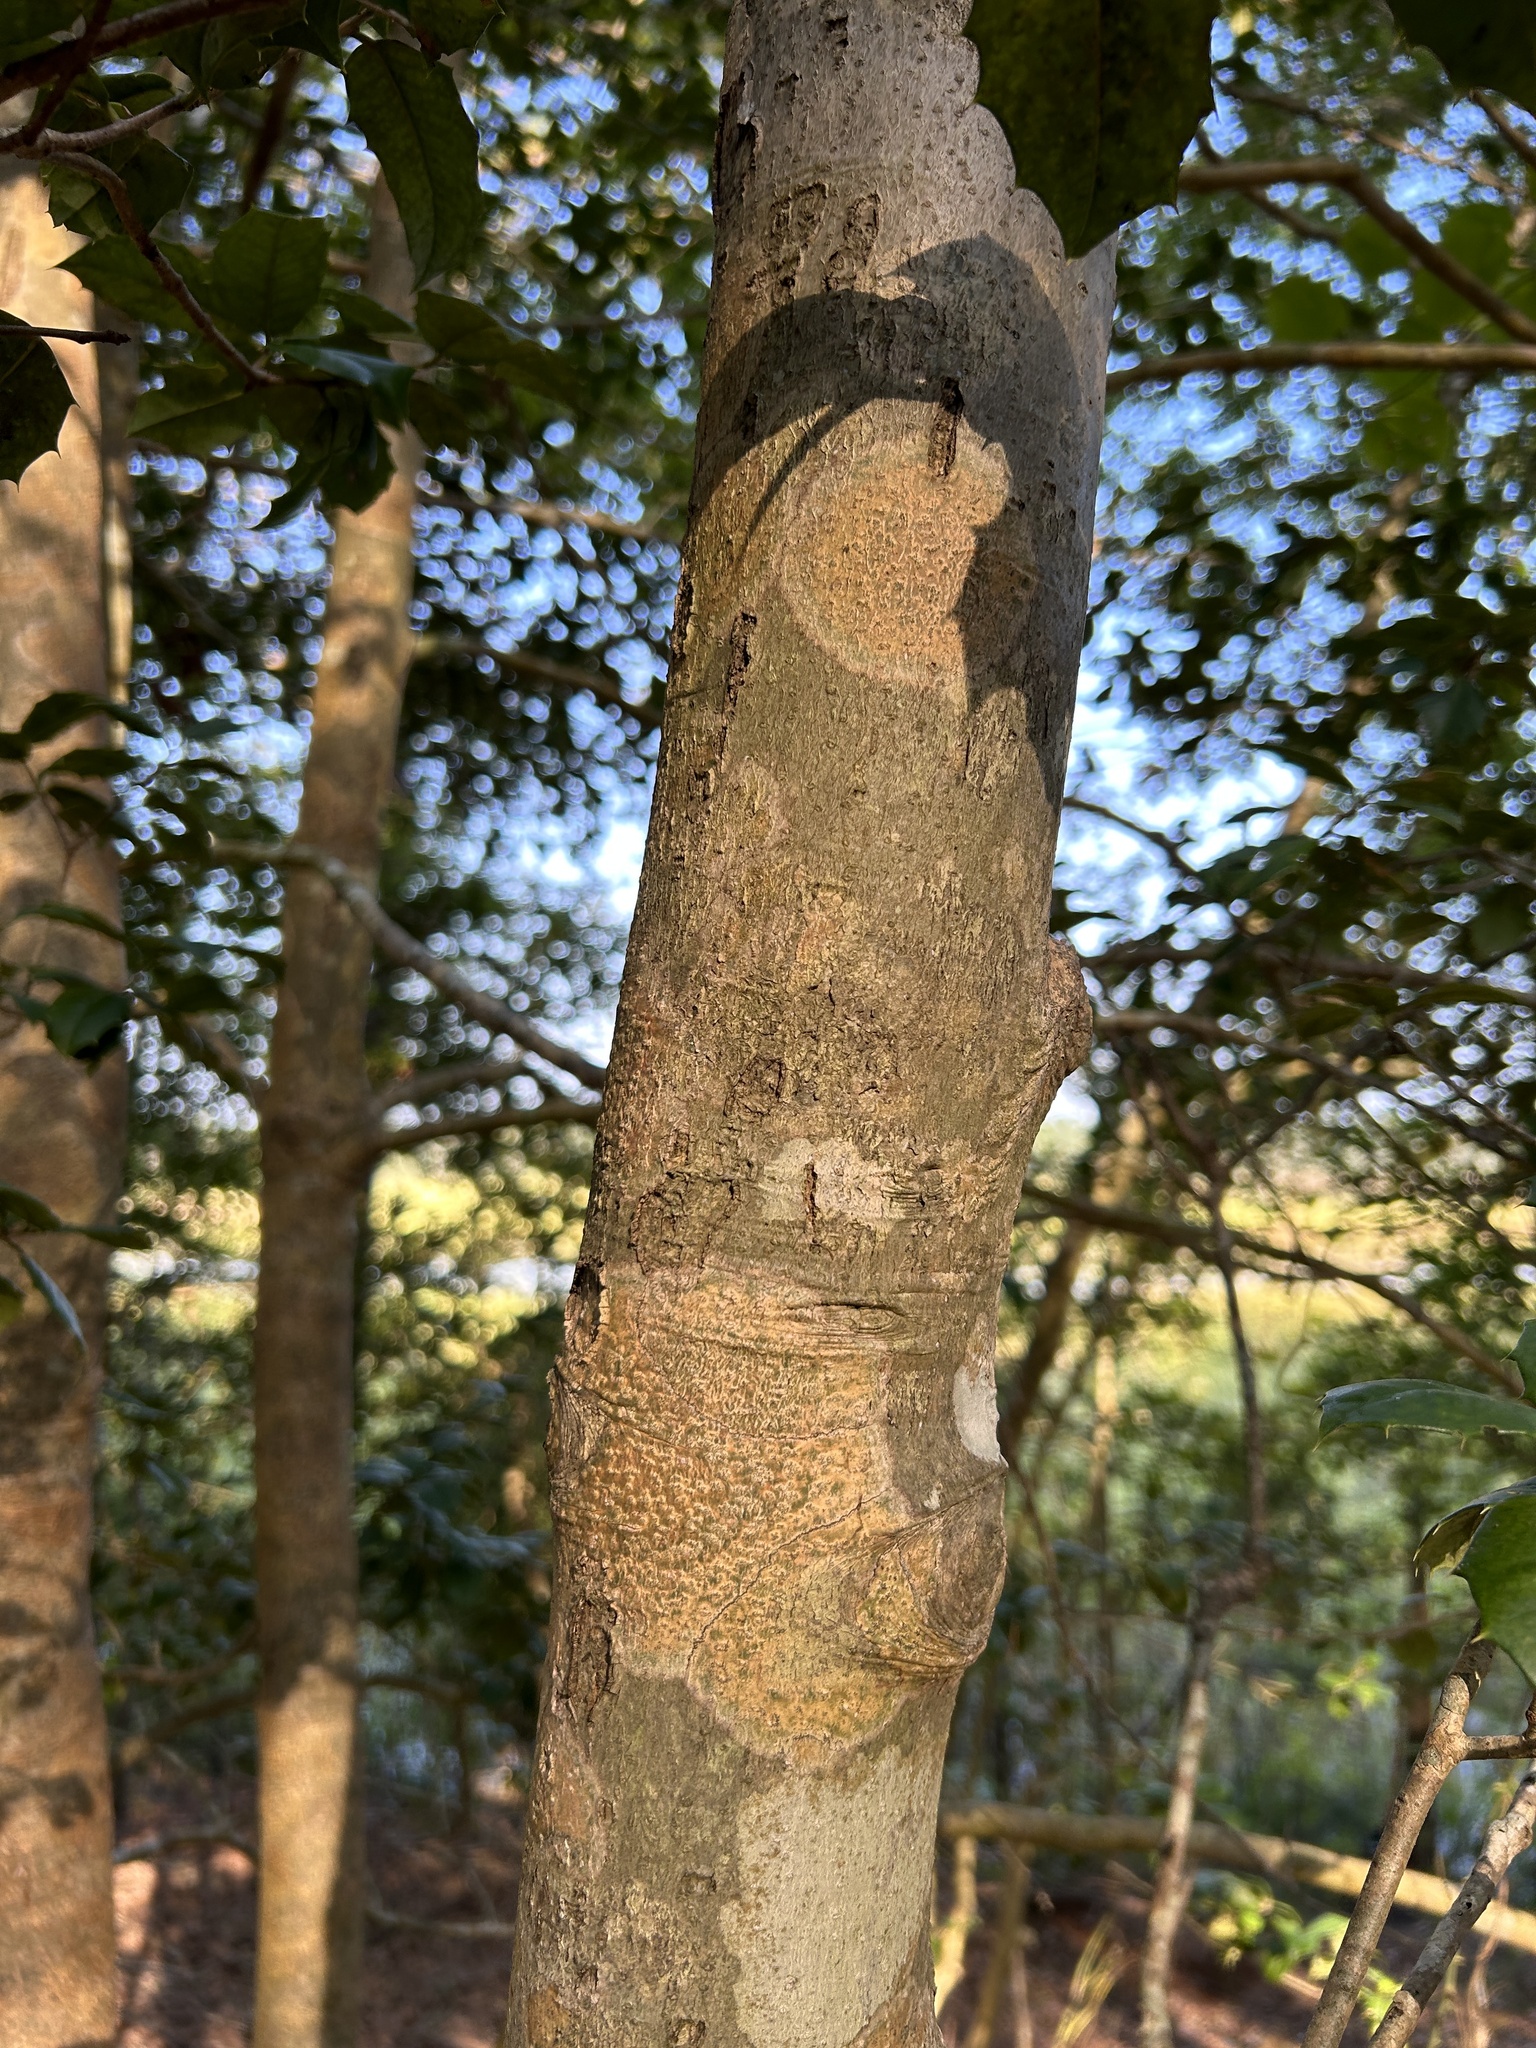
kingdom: Fungi
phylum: Ascomycota
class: Dothideomycetes
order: Trypetheliales
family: Trypetheliaceae
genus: Viridothelium
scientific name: Viridothelium virens
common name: Speckled blister lichen
